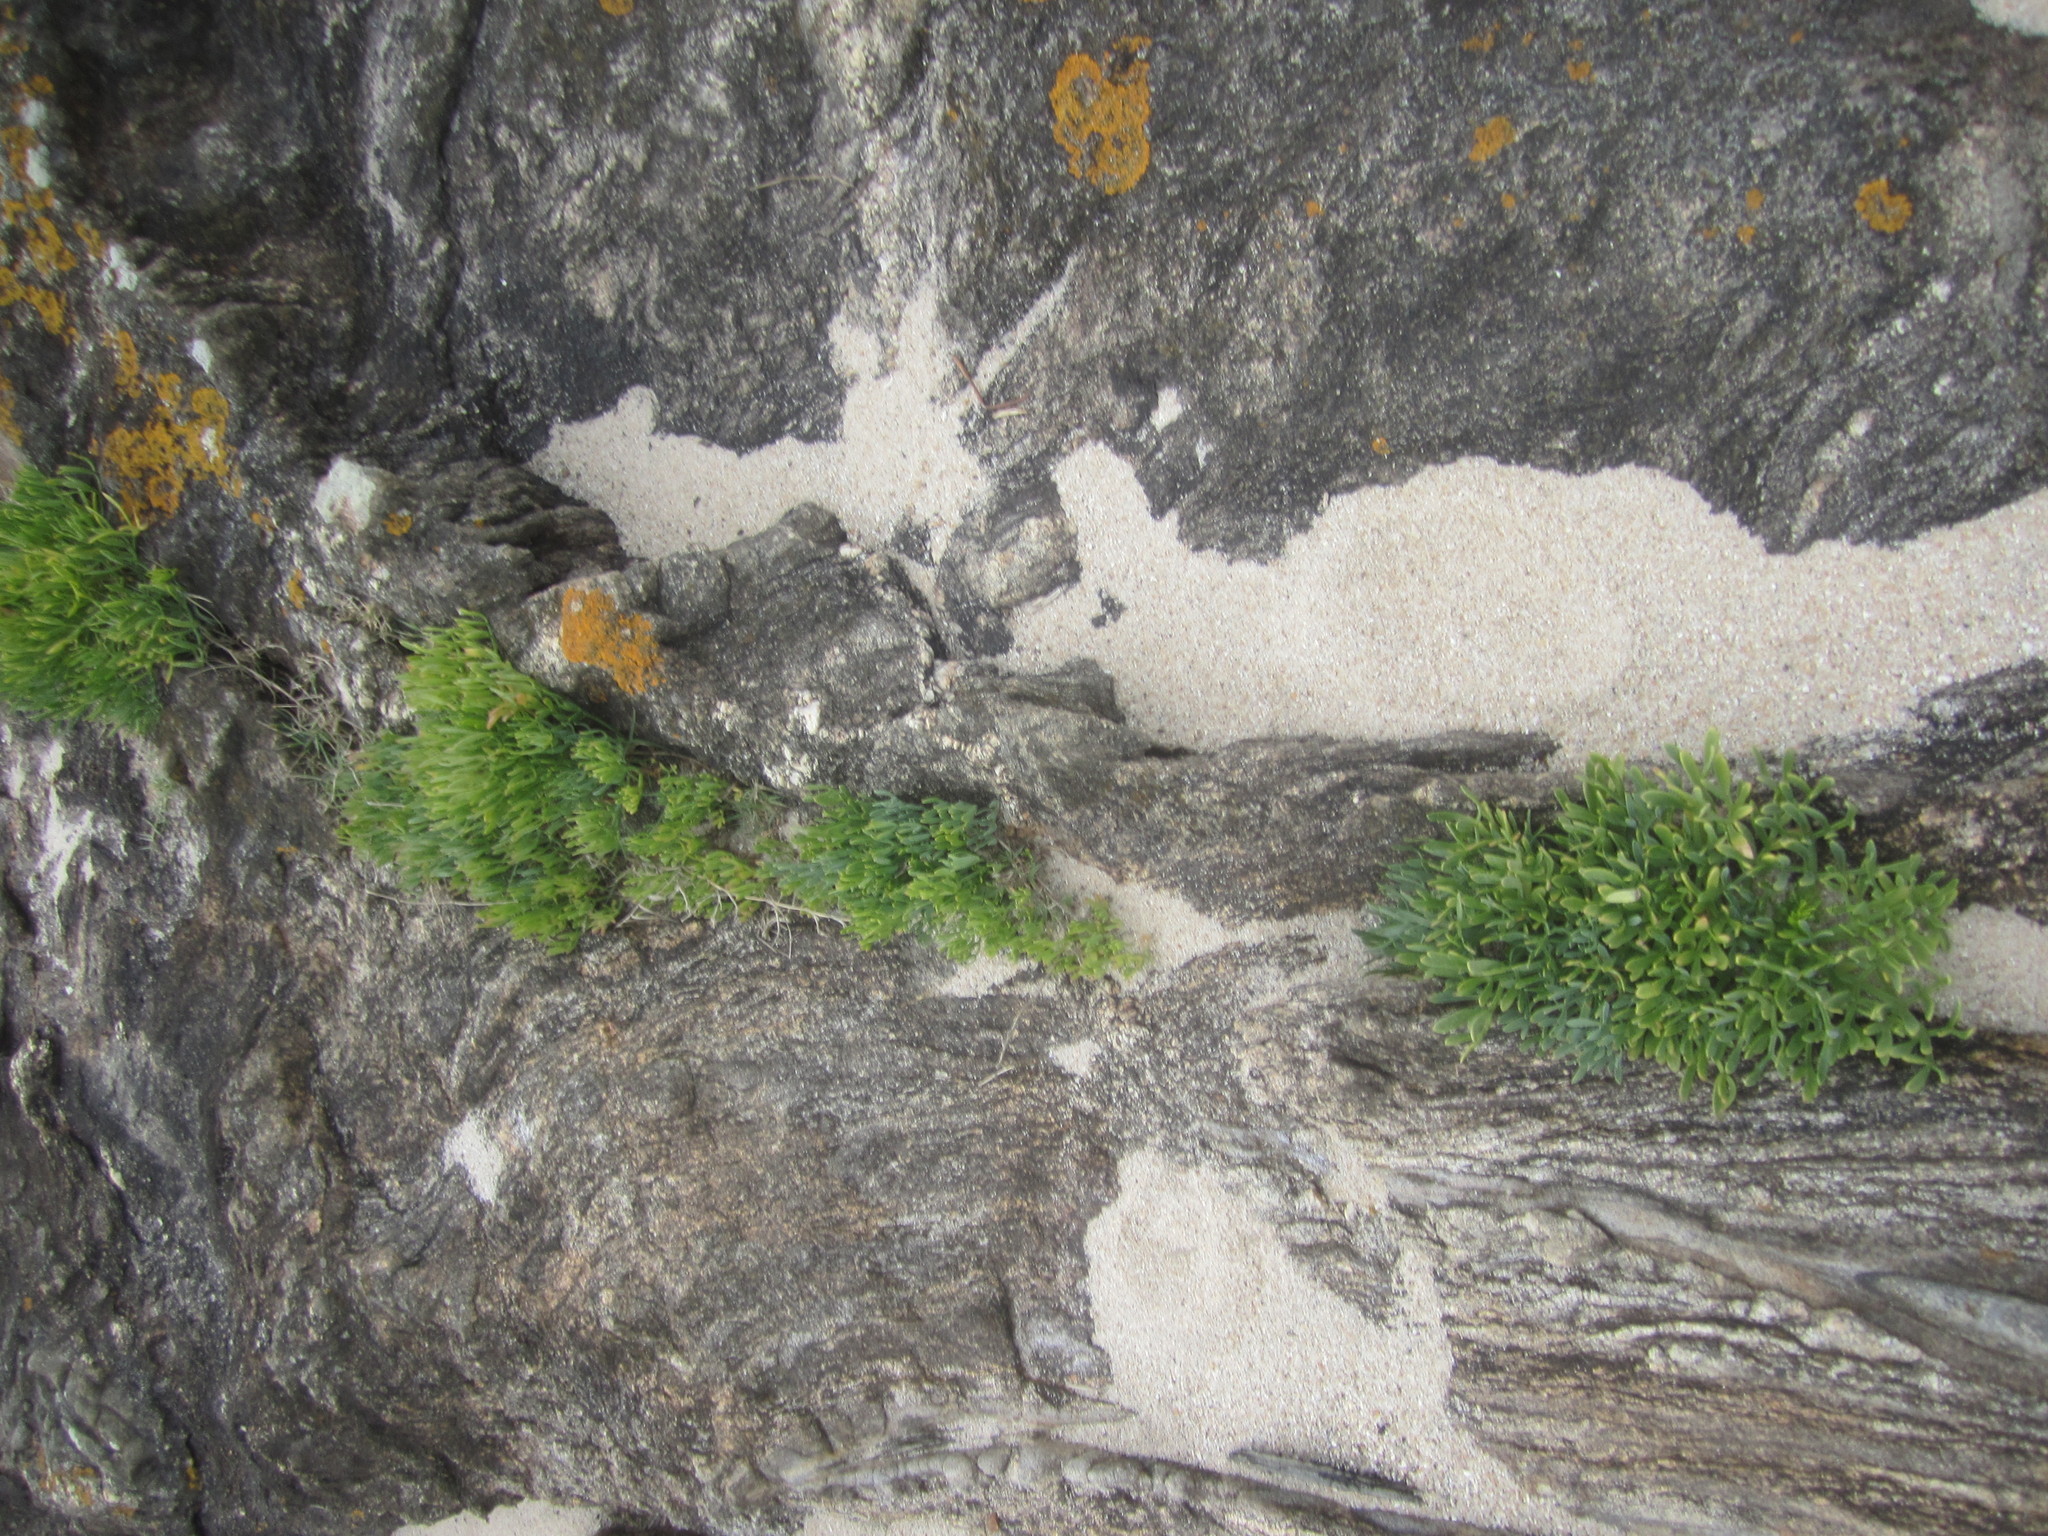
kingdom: Plantae
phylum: Tracheophyta
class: Magnoliopsida
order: Apiales
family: Apiaceae
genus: Crithmum
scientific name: Crithmum maritimum
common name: Rock samphire
